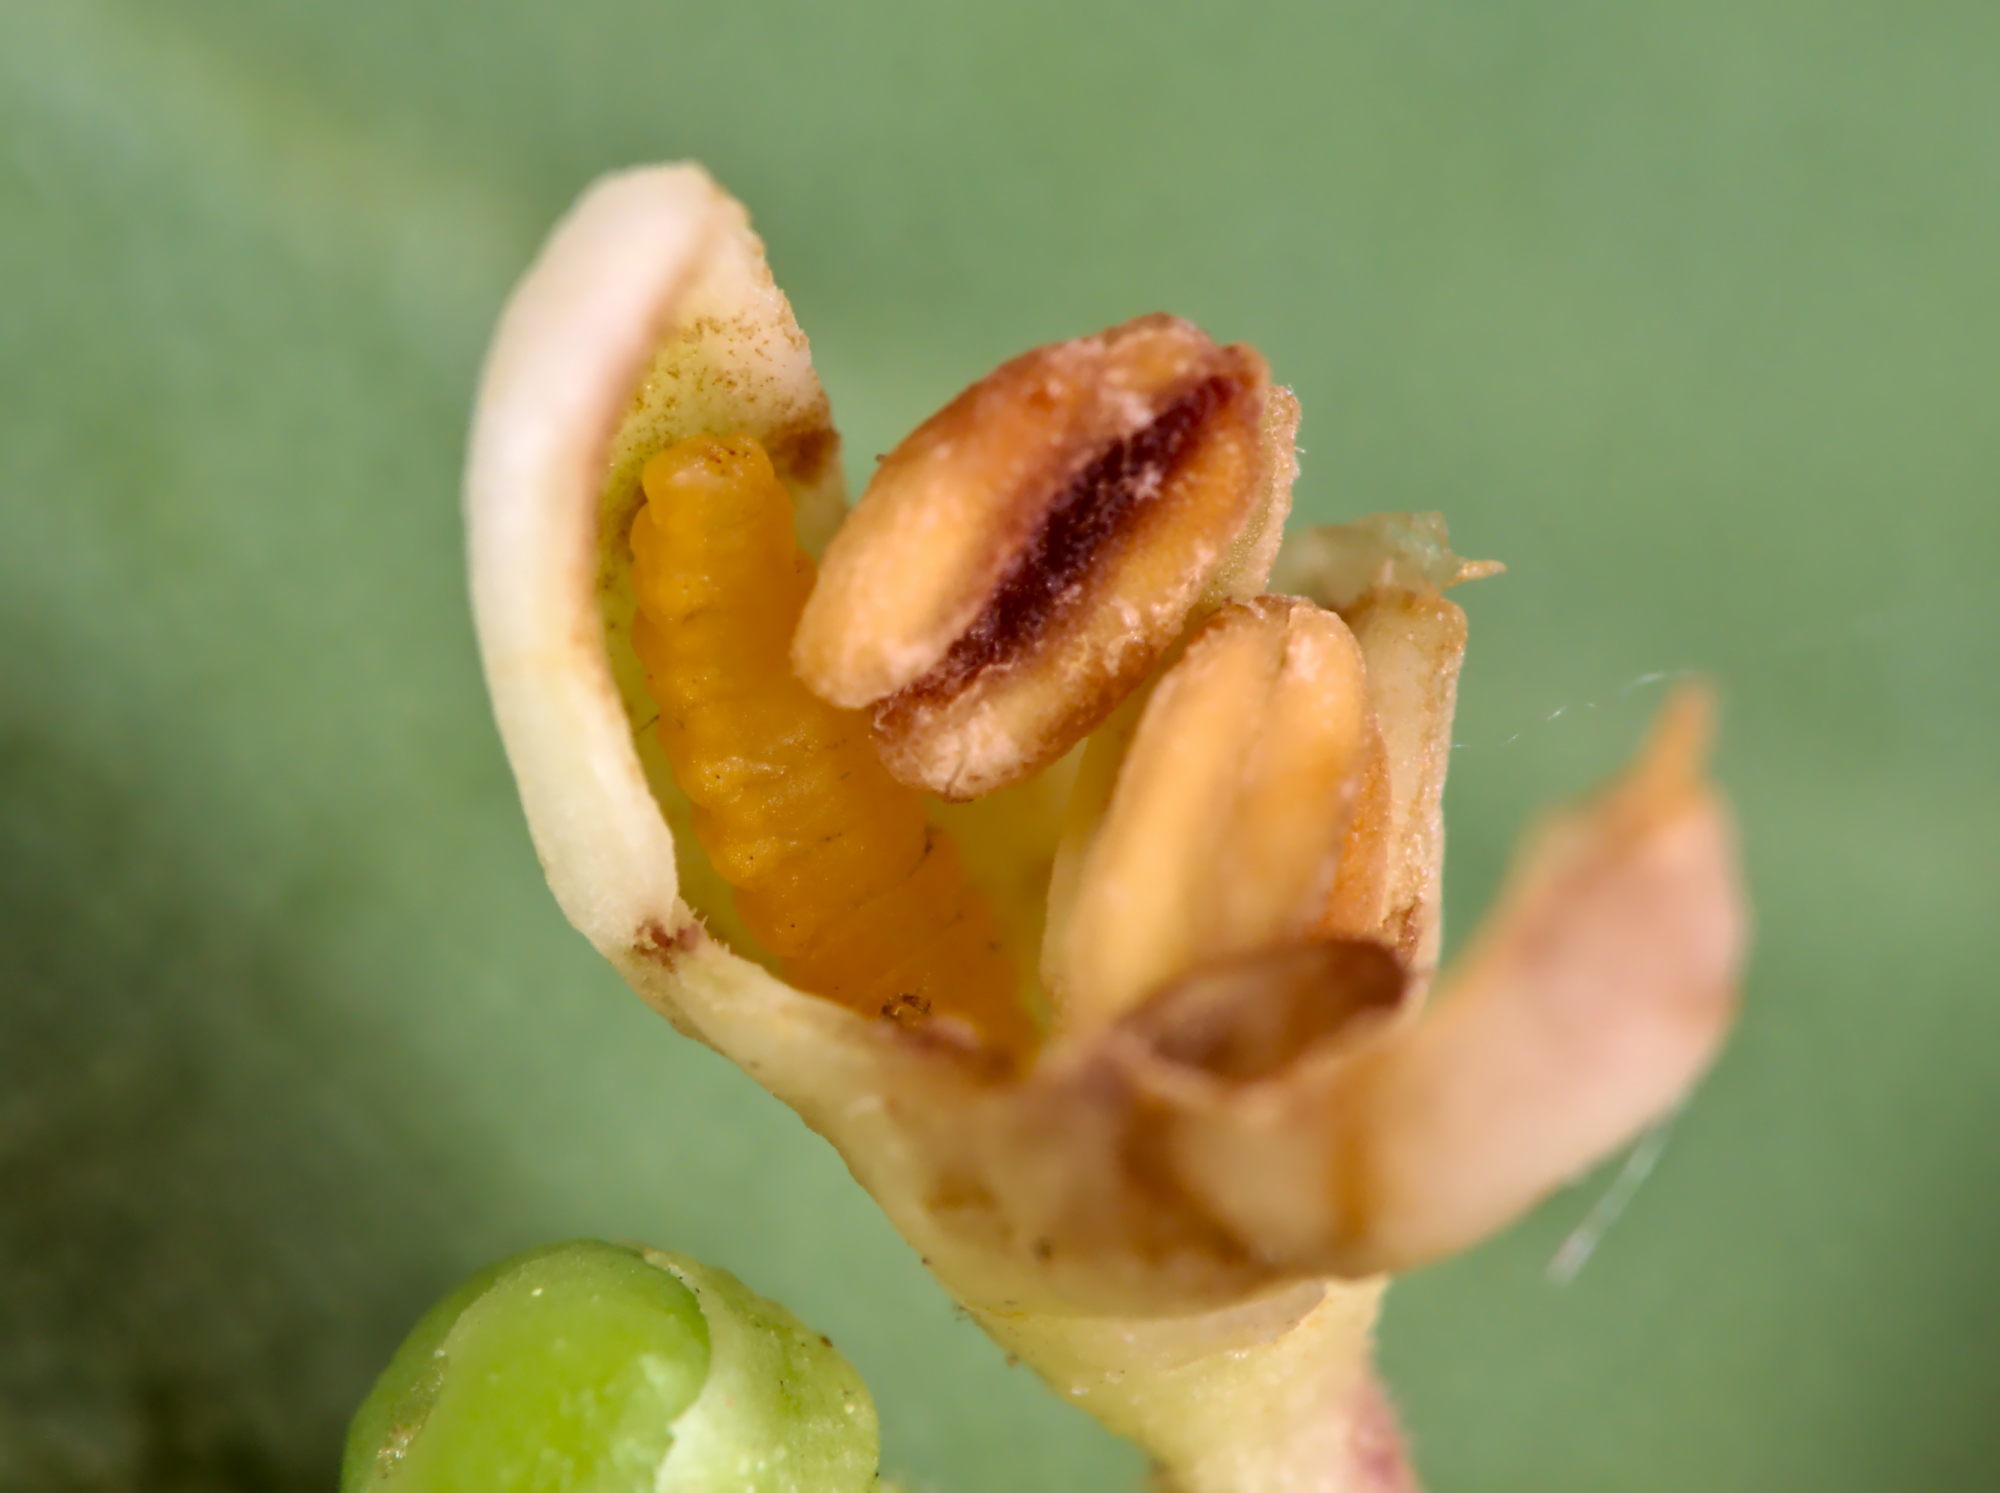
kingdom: Animalia
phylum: Arthropoda
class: Insecta
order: Diptera
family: Cecidomyiidae
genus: Placochela
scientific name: Placochela nigripes
